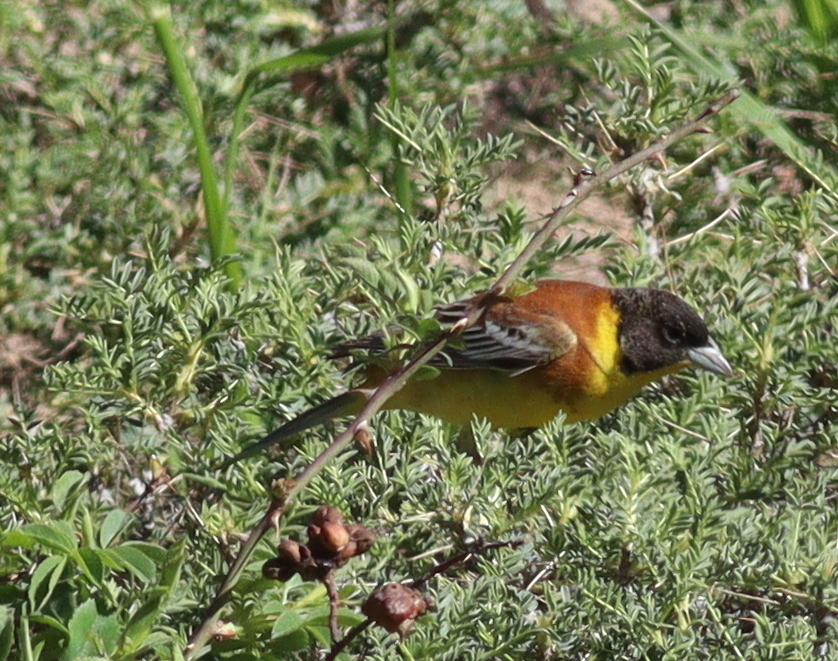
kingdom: Animalia
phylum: Chordata
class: Aves
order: Passeriformes
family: Emberizidae
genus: Emberiza
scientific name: Emberiza melanocephala
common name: Black-headed bunting
